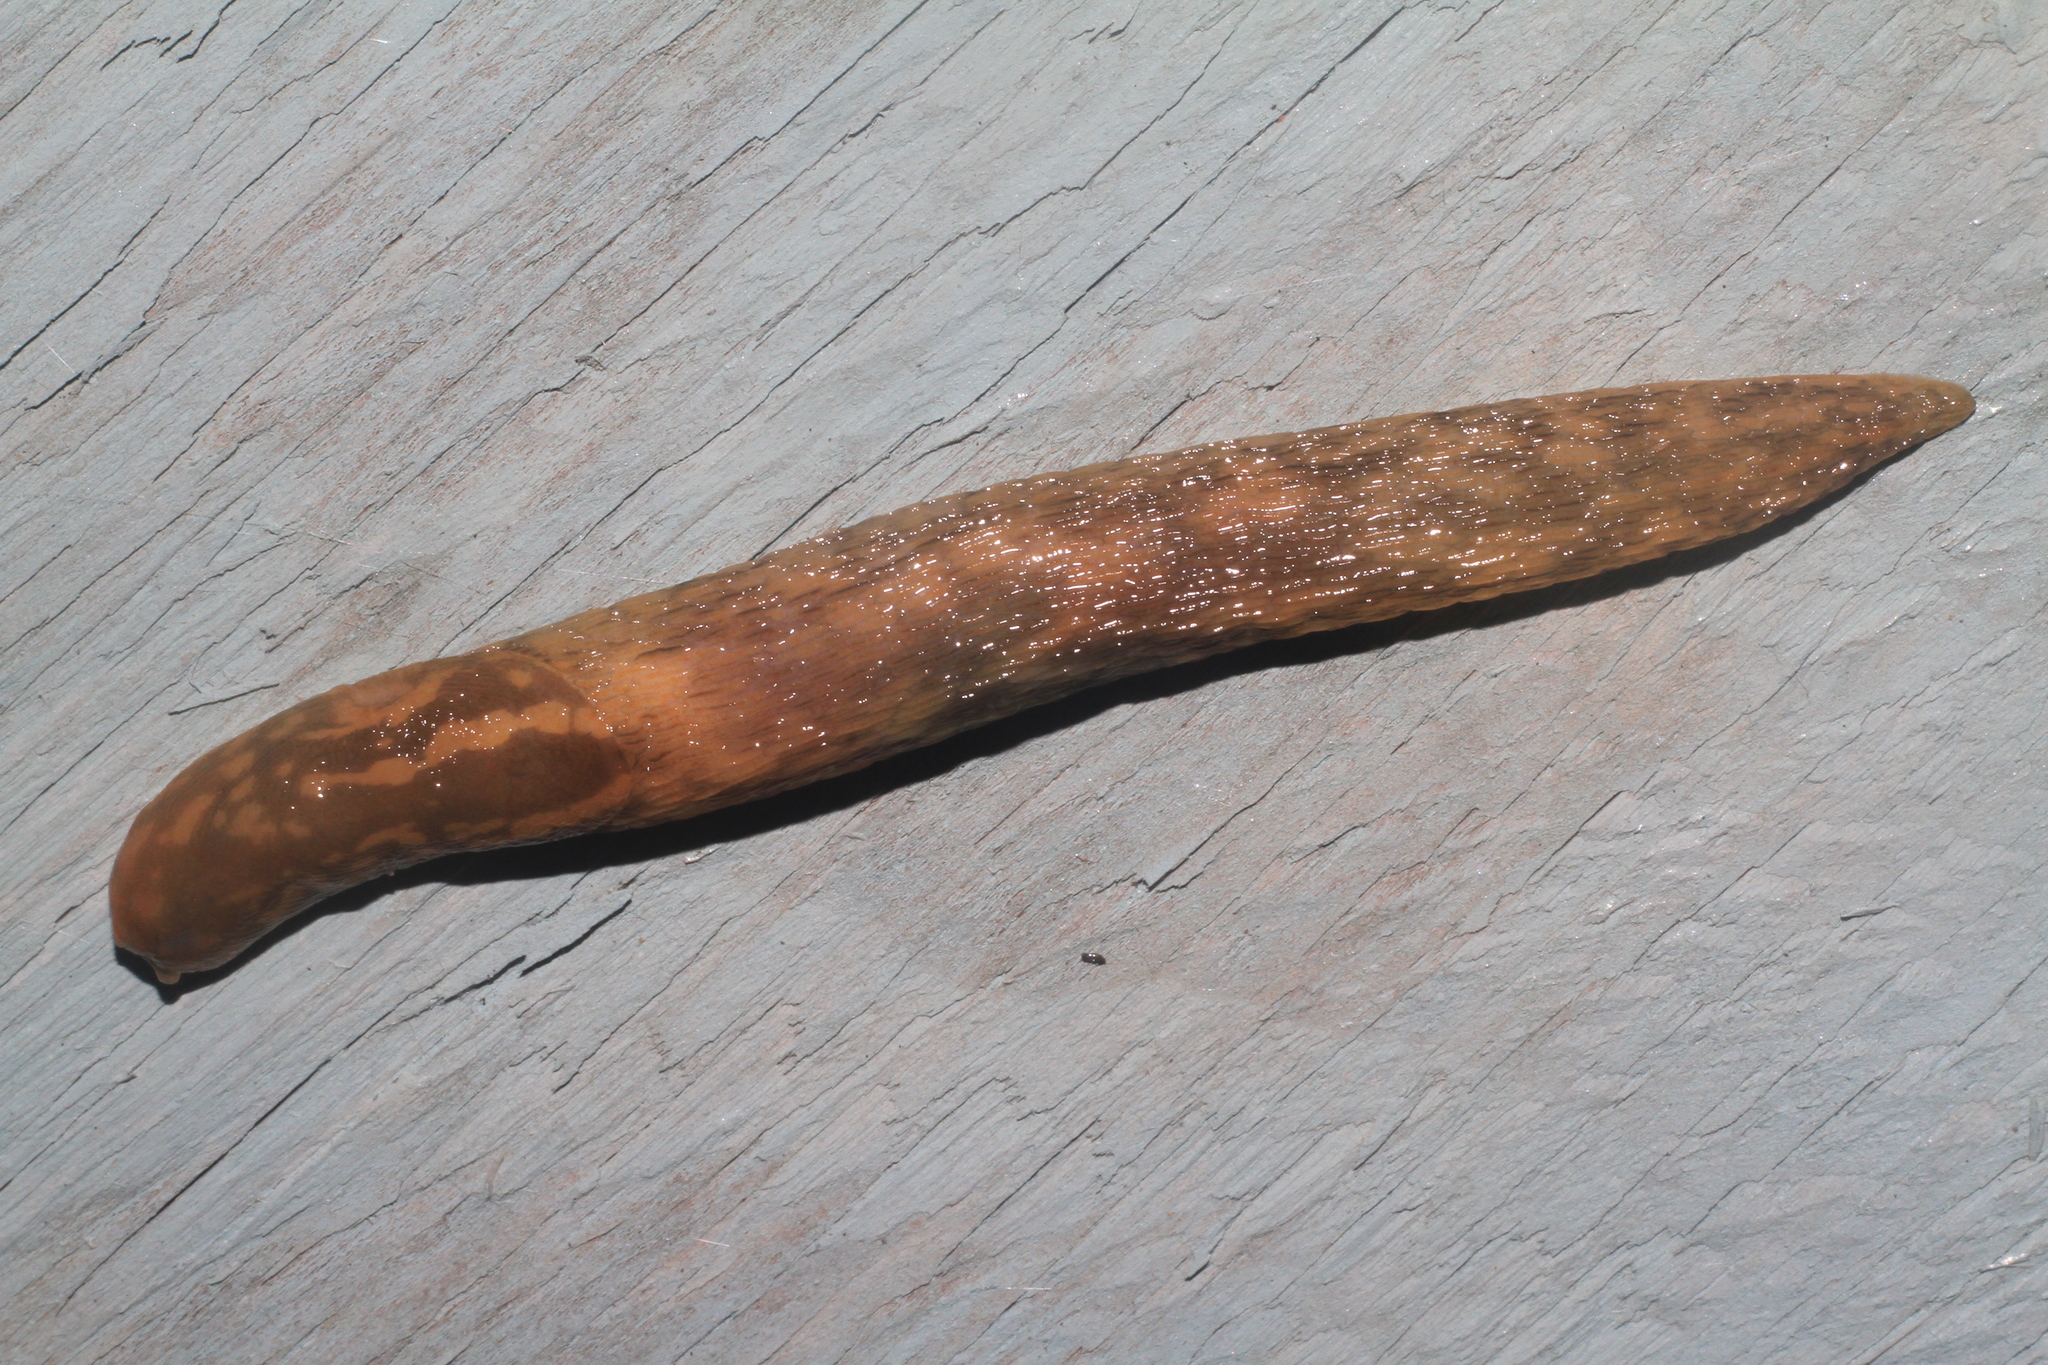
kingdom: Animalia
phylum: Mollusca
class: Gastropoda
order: Stylommatophora
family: Limacidae
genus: Limacus
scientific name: Limacus maculatus
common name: Irish yellow slug
